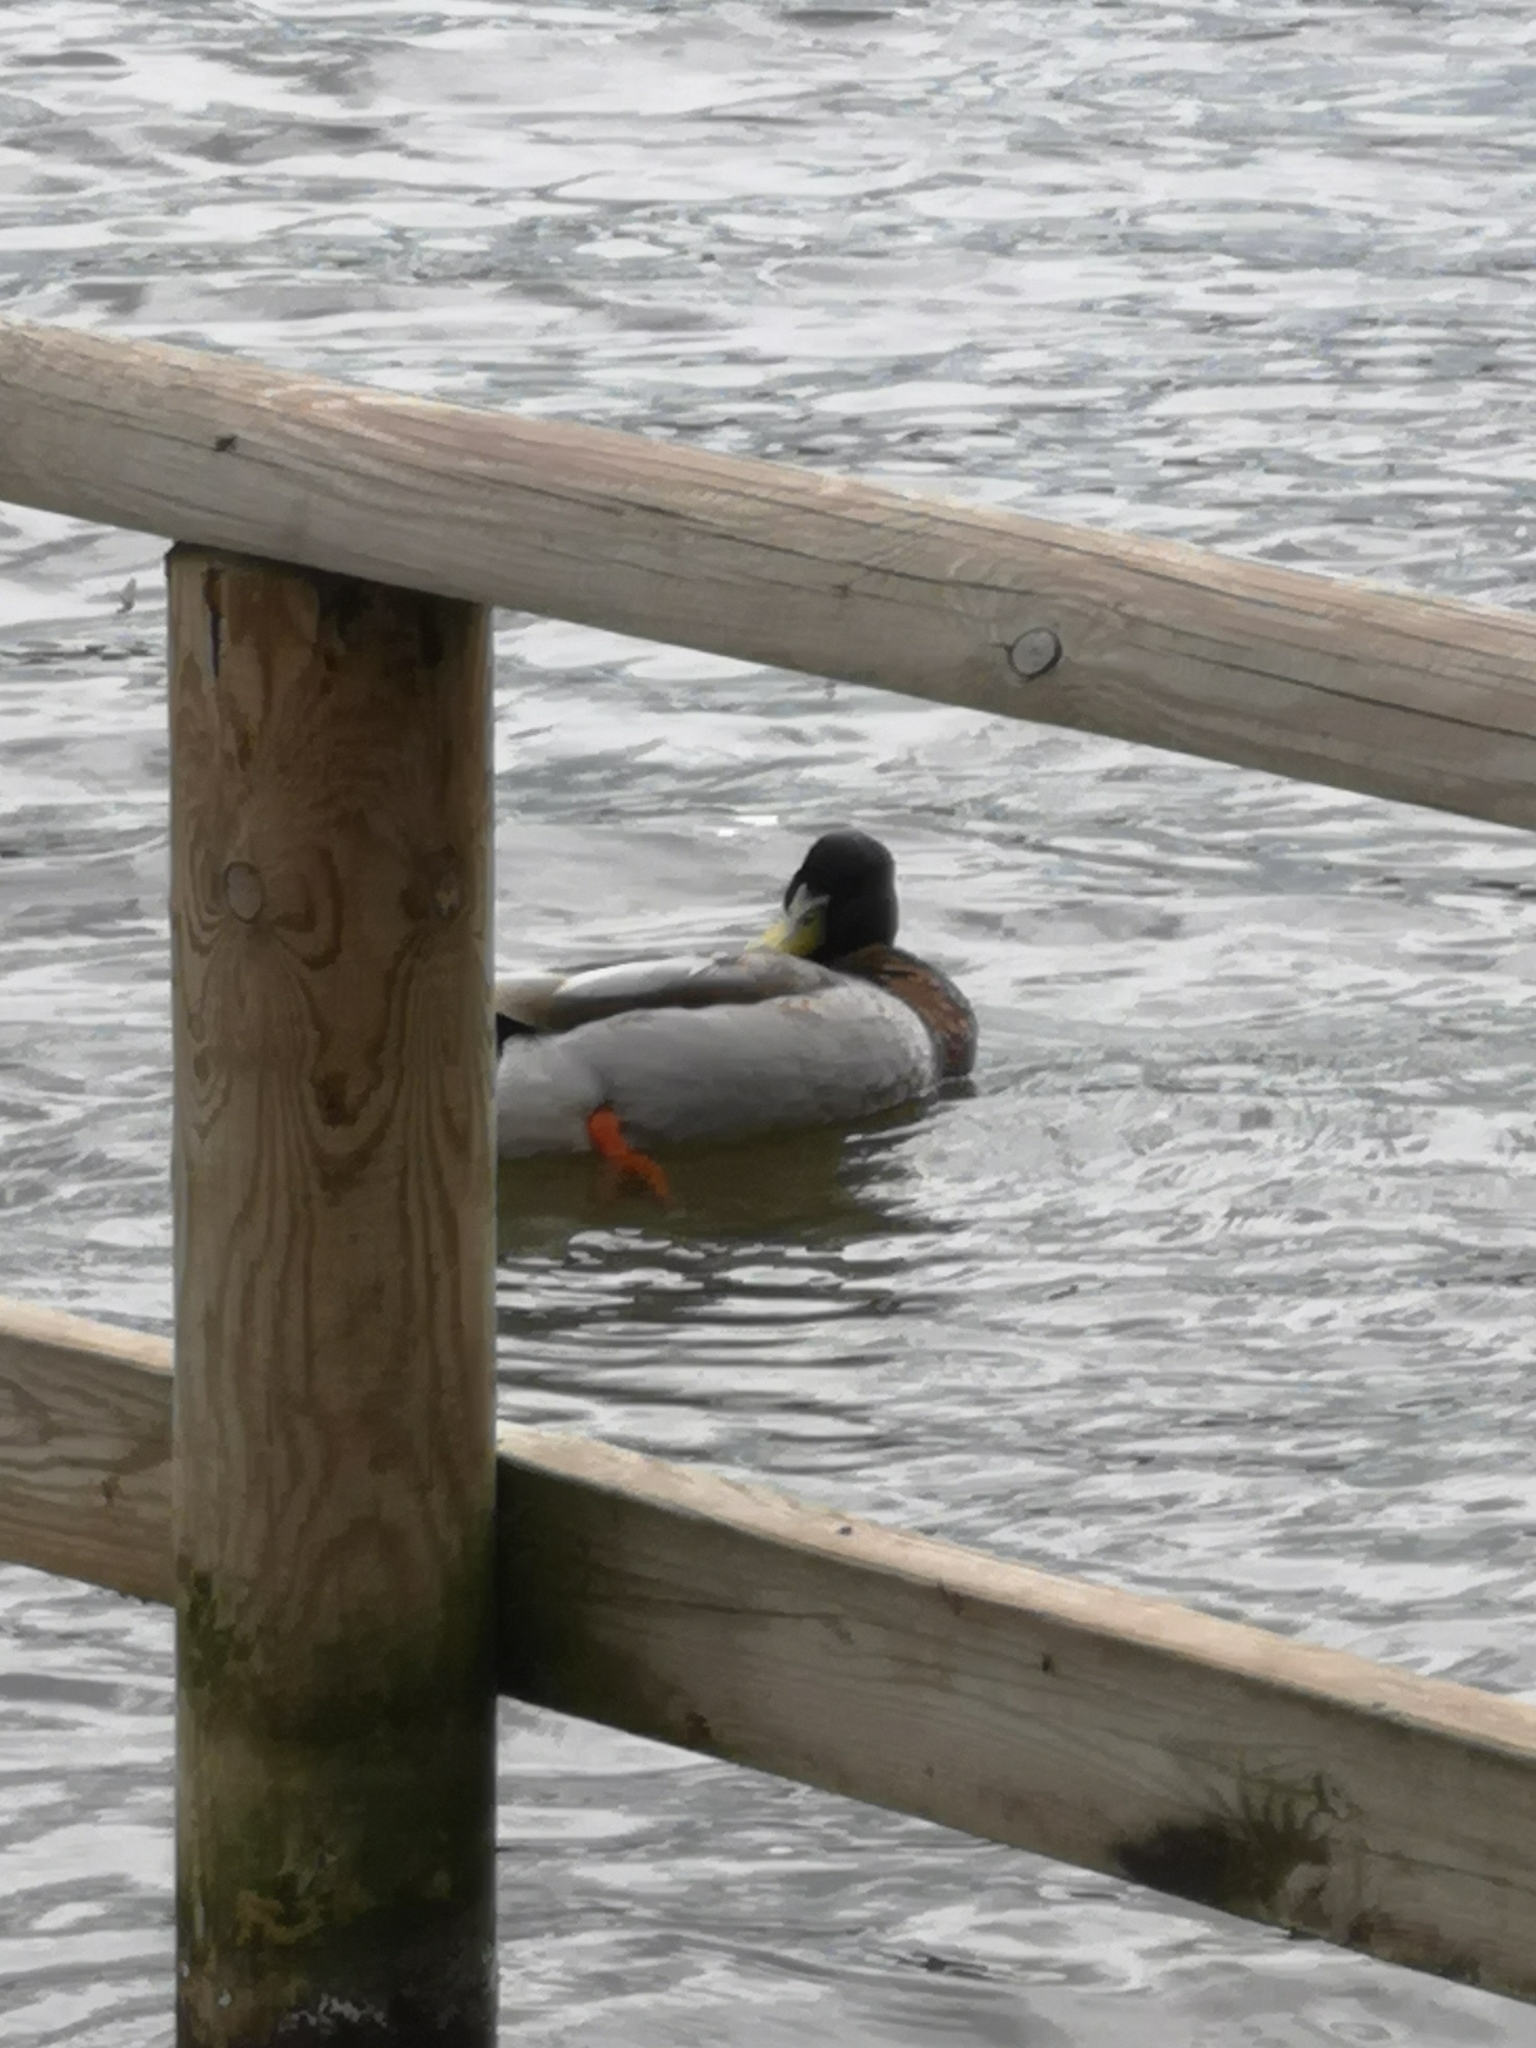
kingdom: Animalia
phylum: Chordata
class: Aves
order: Anseriformes
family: Anatidae
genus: Anas
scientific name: Anas platyrhynchos
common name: Mallard
